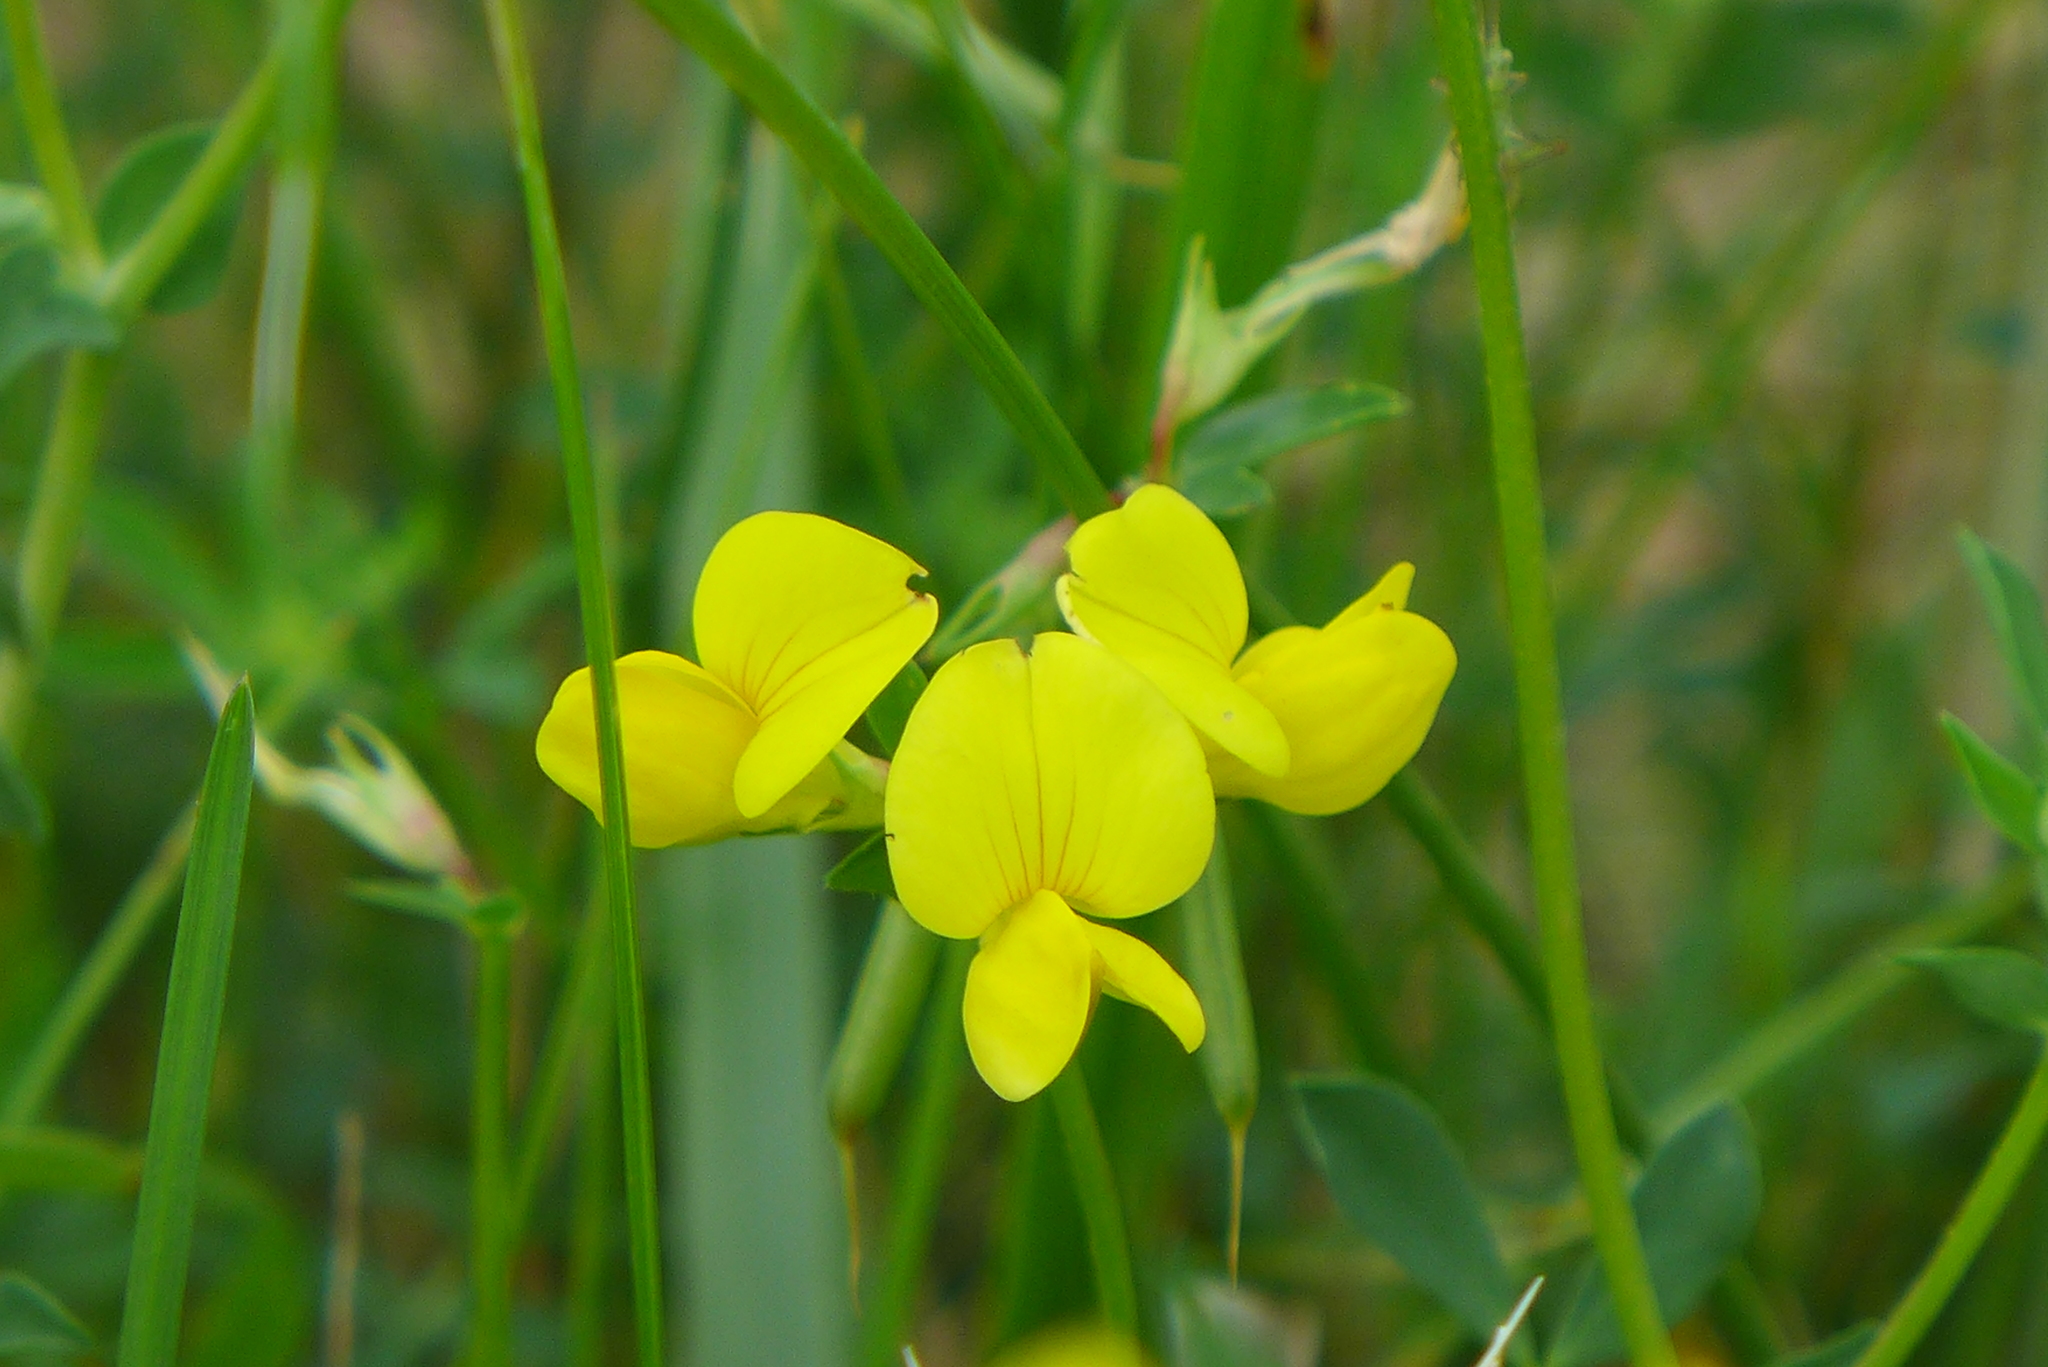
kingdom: Plantae
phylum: Tracheophyta
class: Magnoliopsida
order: Fabales
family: Fabaceae
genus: Lotus
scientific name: Lotus corniculatus
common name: Common bird's-foot-trefoil
